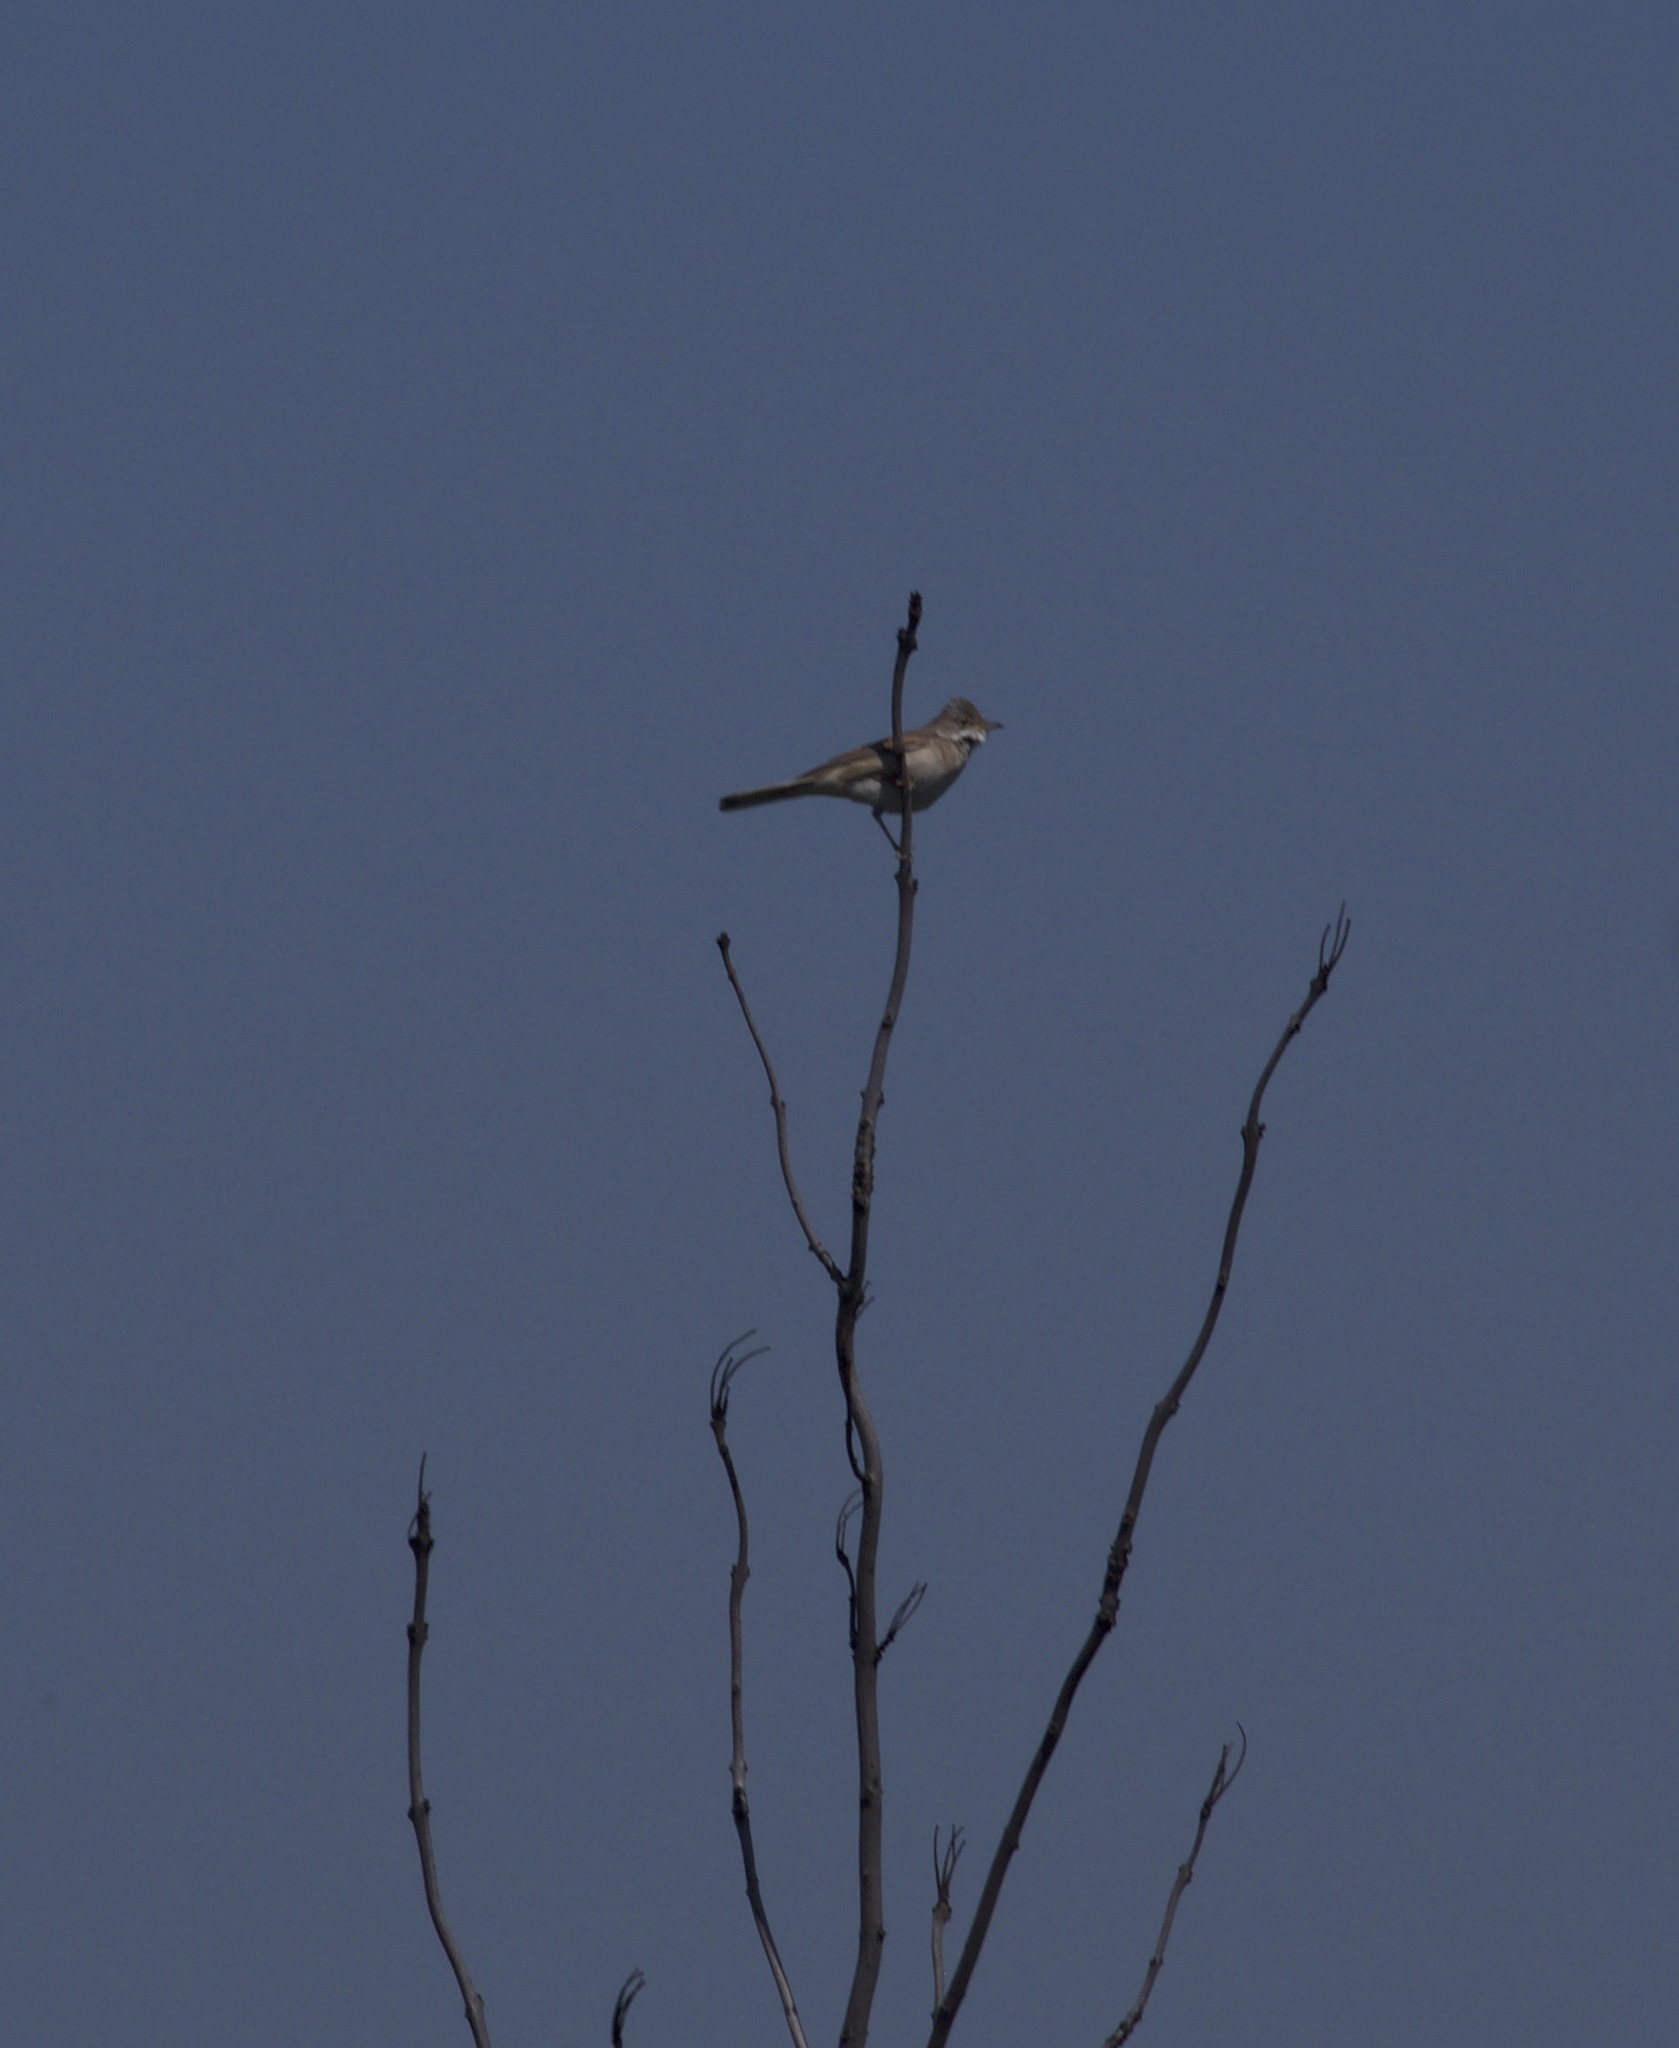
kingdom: Animalia
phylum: Chordata
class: Aves
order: Passeriformes
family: Sylviidae
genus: Sylvia
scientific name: Sylvia communis
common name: Common whitethroat
